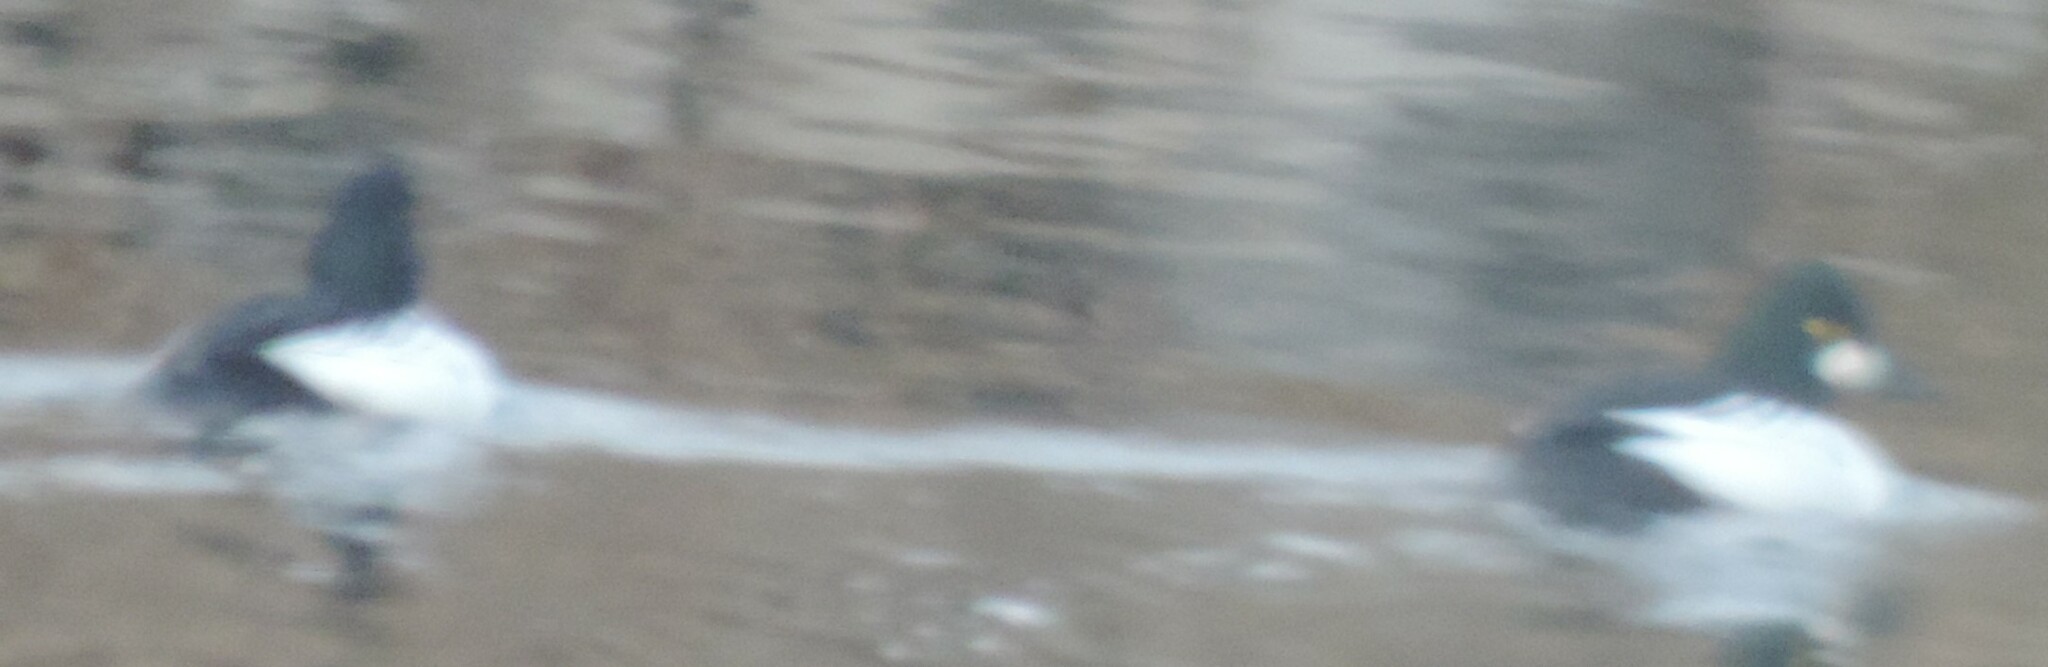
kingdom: Animalia
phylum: Chordata
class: Aves
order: Anseriformes
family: Anatidae
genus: Bucephala
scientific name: Bucephala clangula
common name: Common goldeneye
